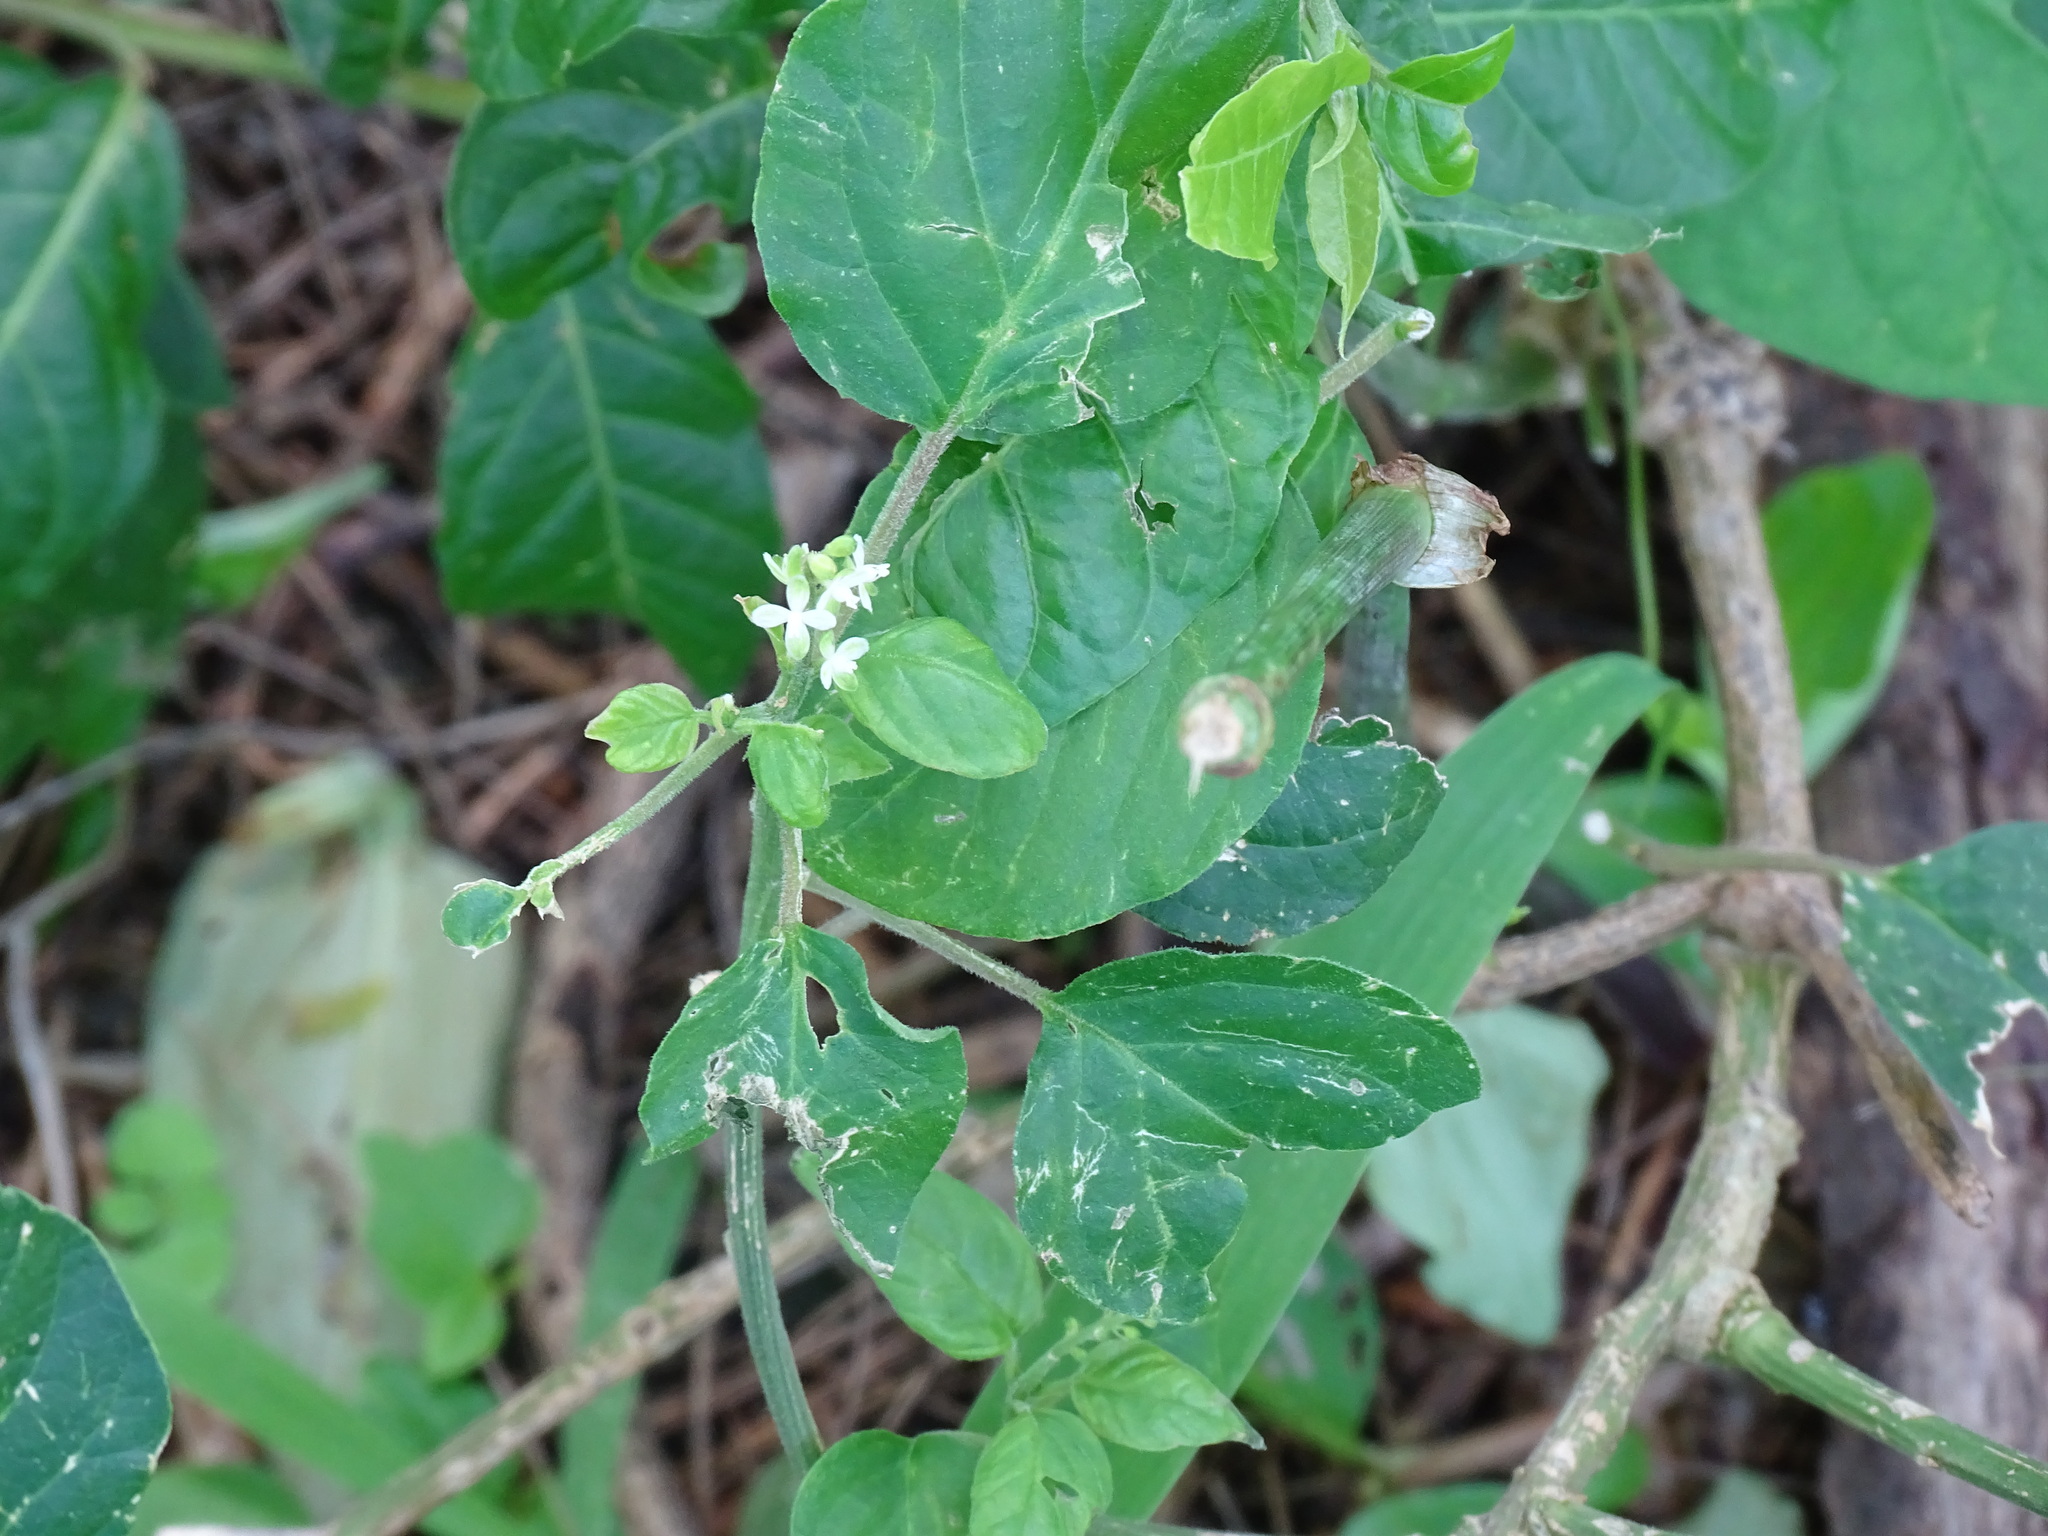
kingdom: Plantae
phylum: Tracheophyta
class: Magnoliopsida
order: Caryophyllales
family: Phytolaccaceae
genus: Rivina
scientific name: Rivina humilis
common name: Rougeplant
